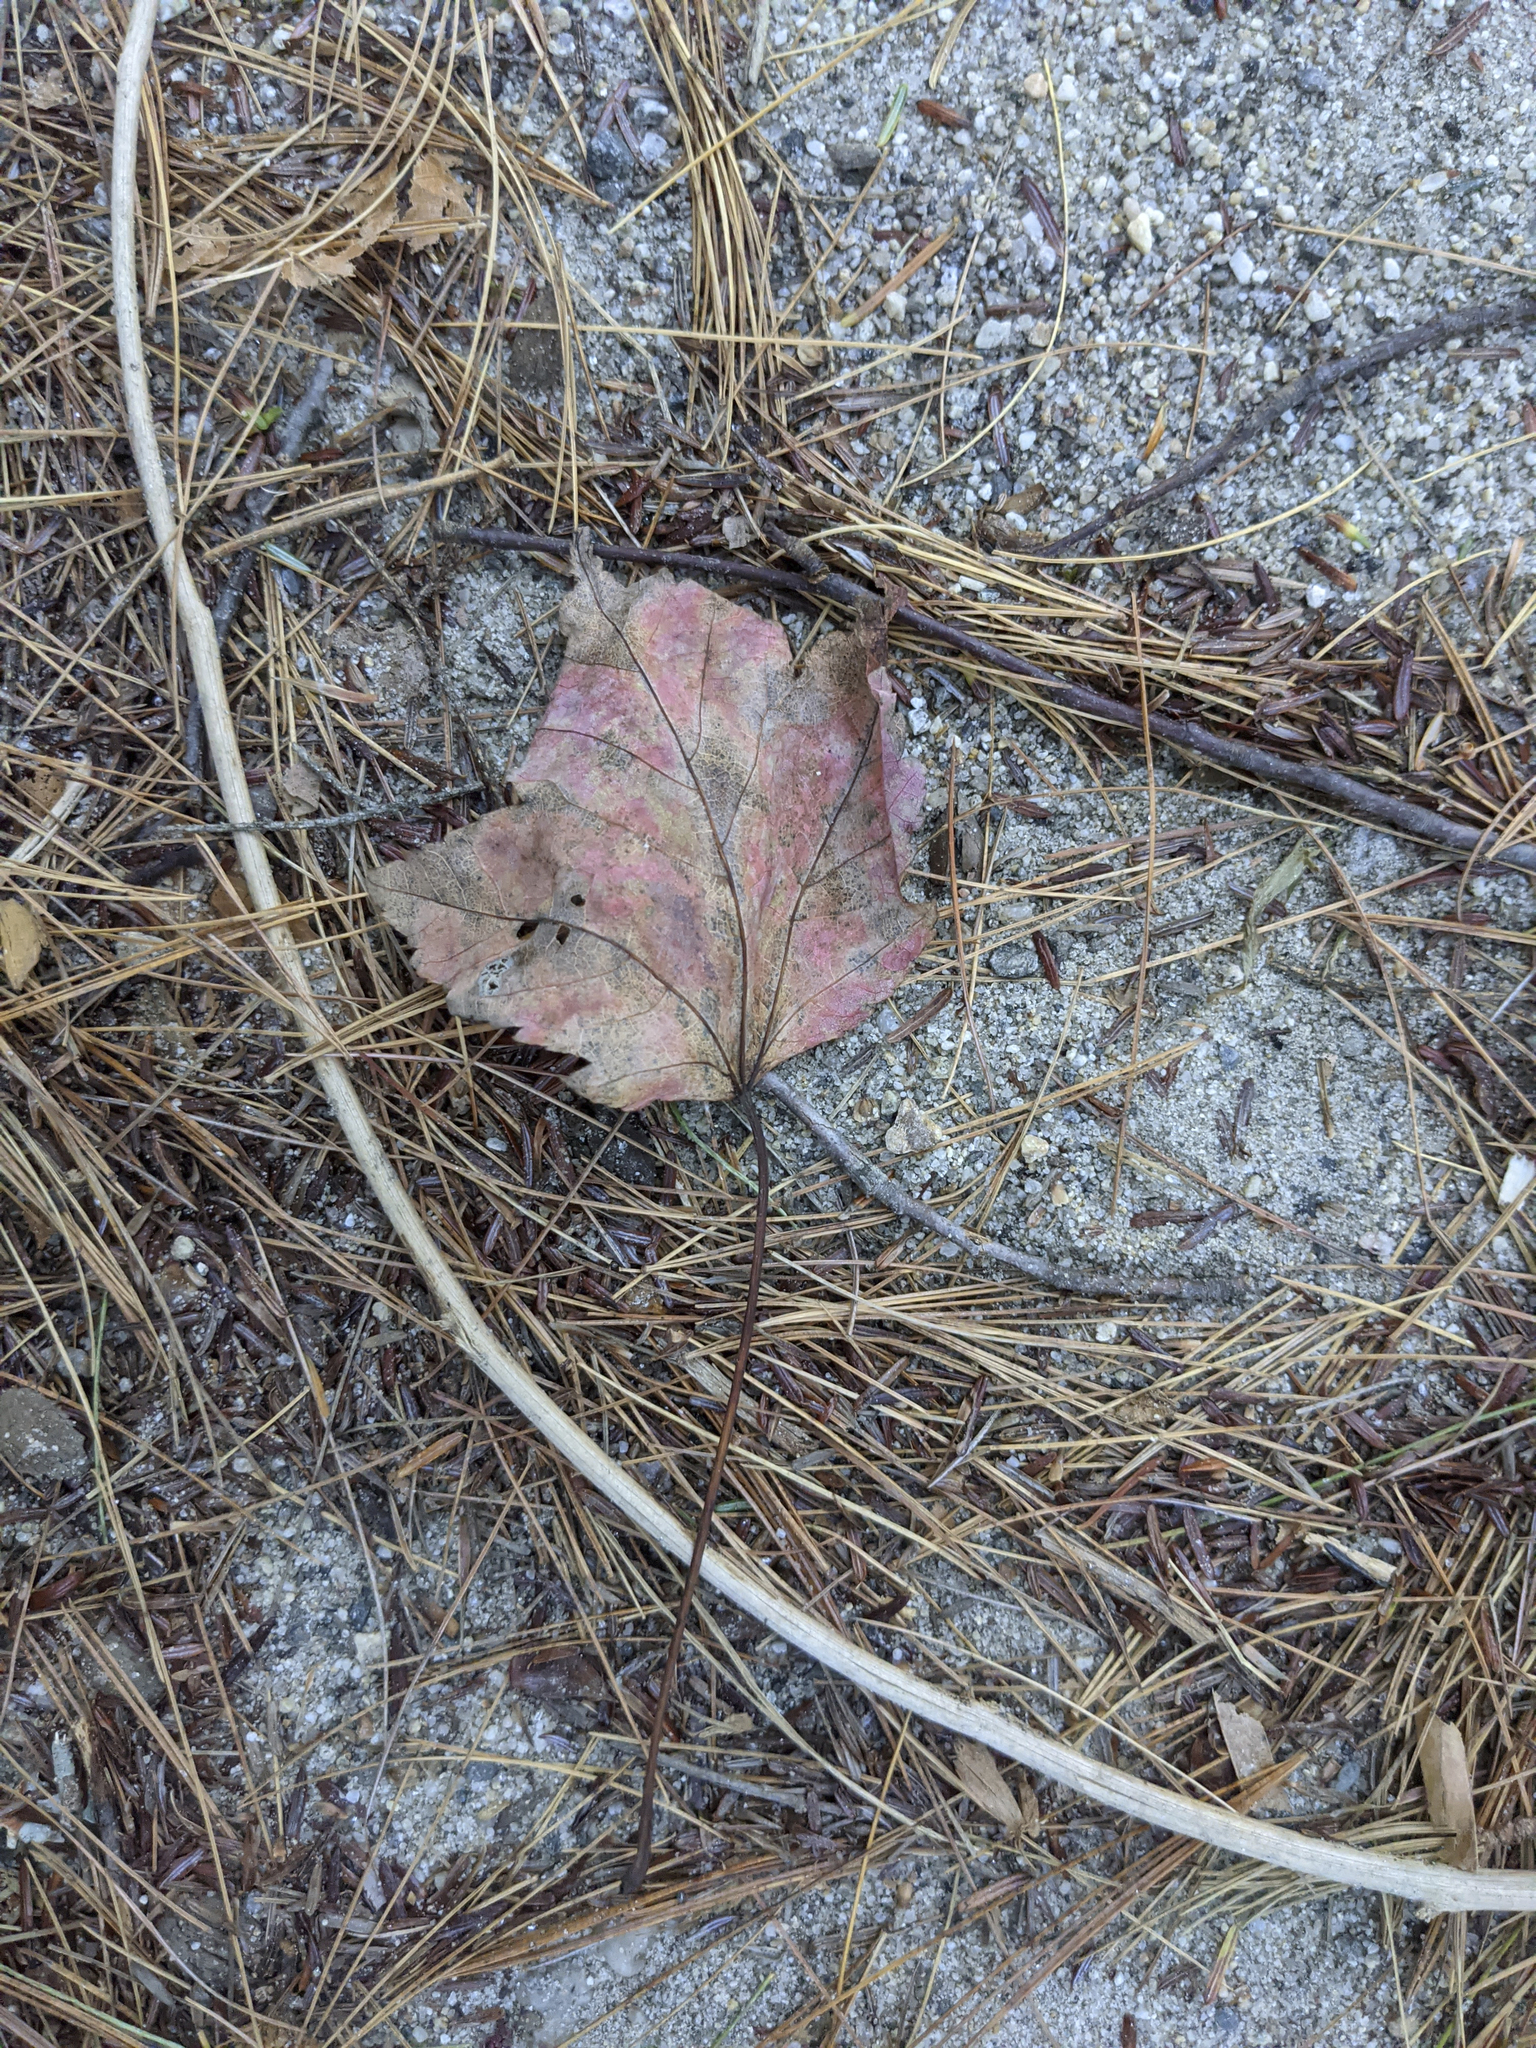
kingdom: Plantae
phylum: Tracheophyta
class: Magnoliopsida
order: Sapindales
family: Sapindaceae
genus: Acer
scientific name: Acer rubrum
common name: Red maple
